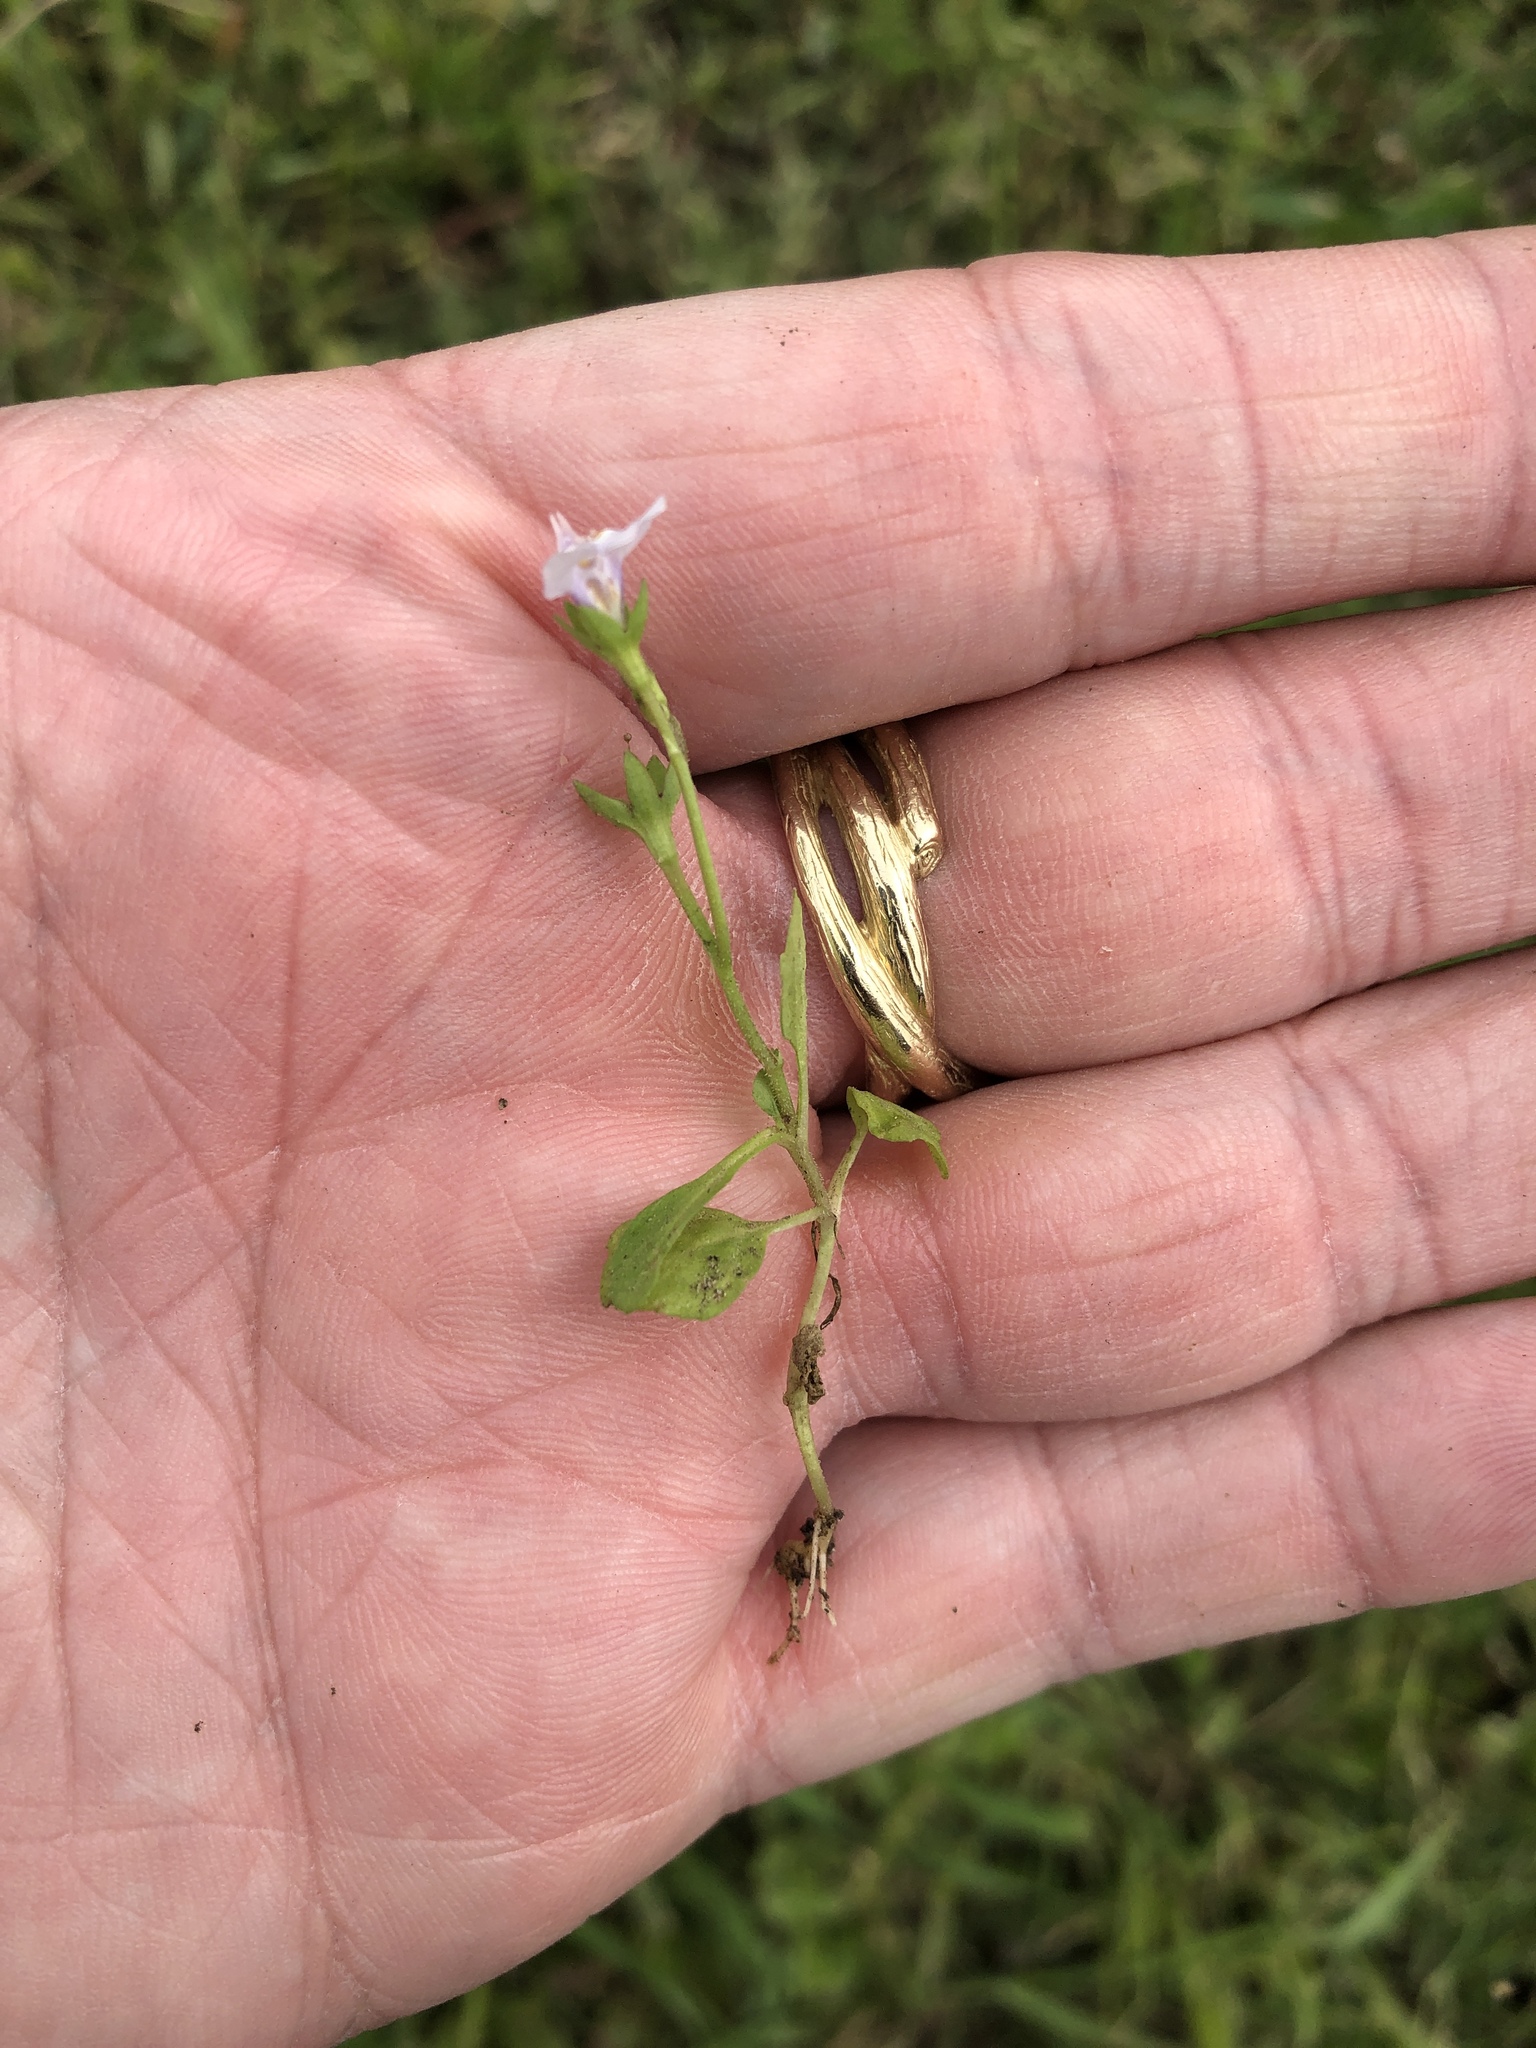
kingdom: Plantae
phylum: Tracheophyta
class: Magnoliopsida
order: Lamiales
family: Mazaceae
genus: Mazus
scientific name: Mazus pumilus
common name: Japanese mazus
